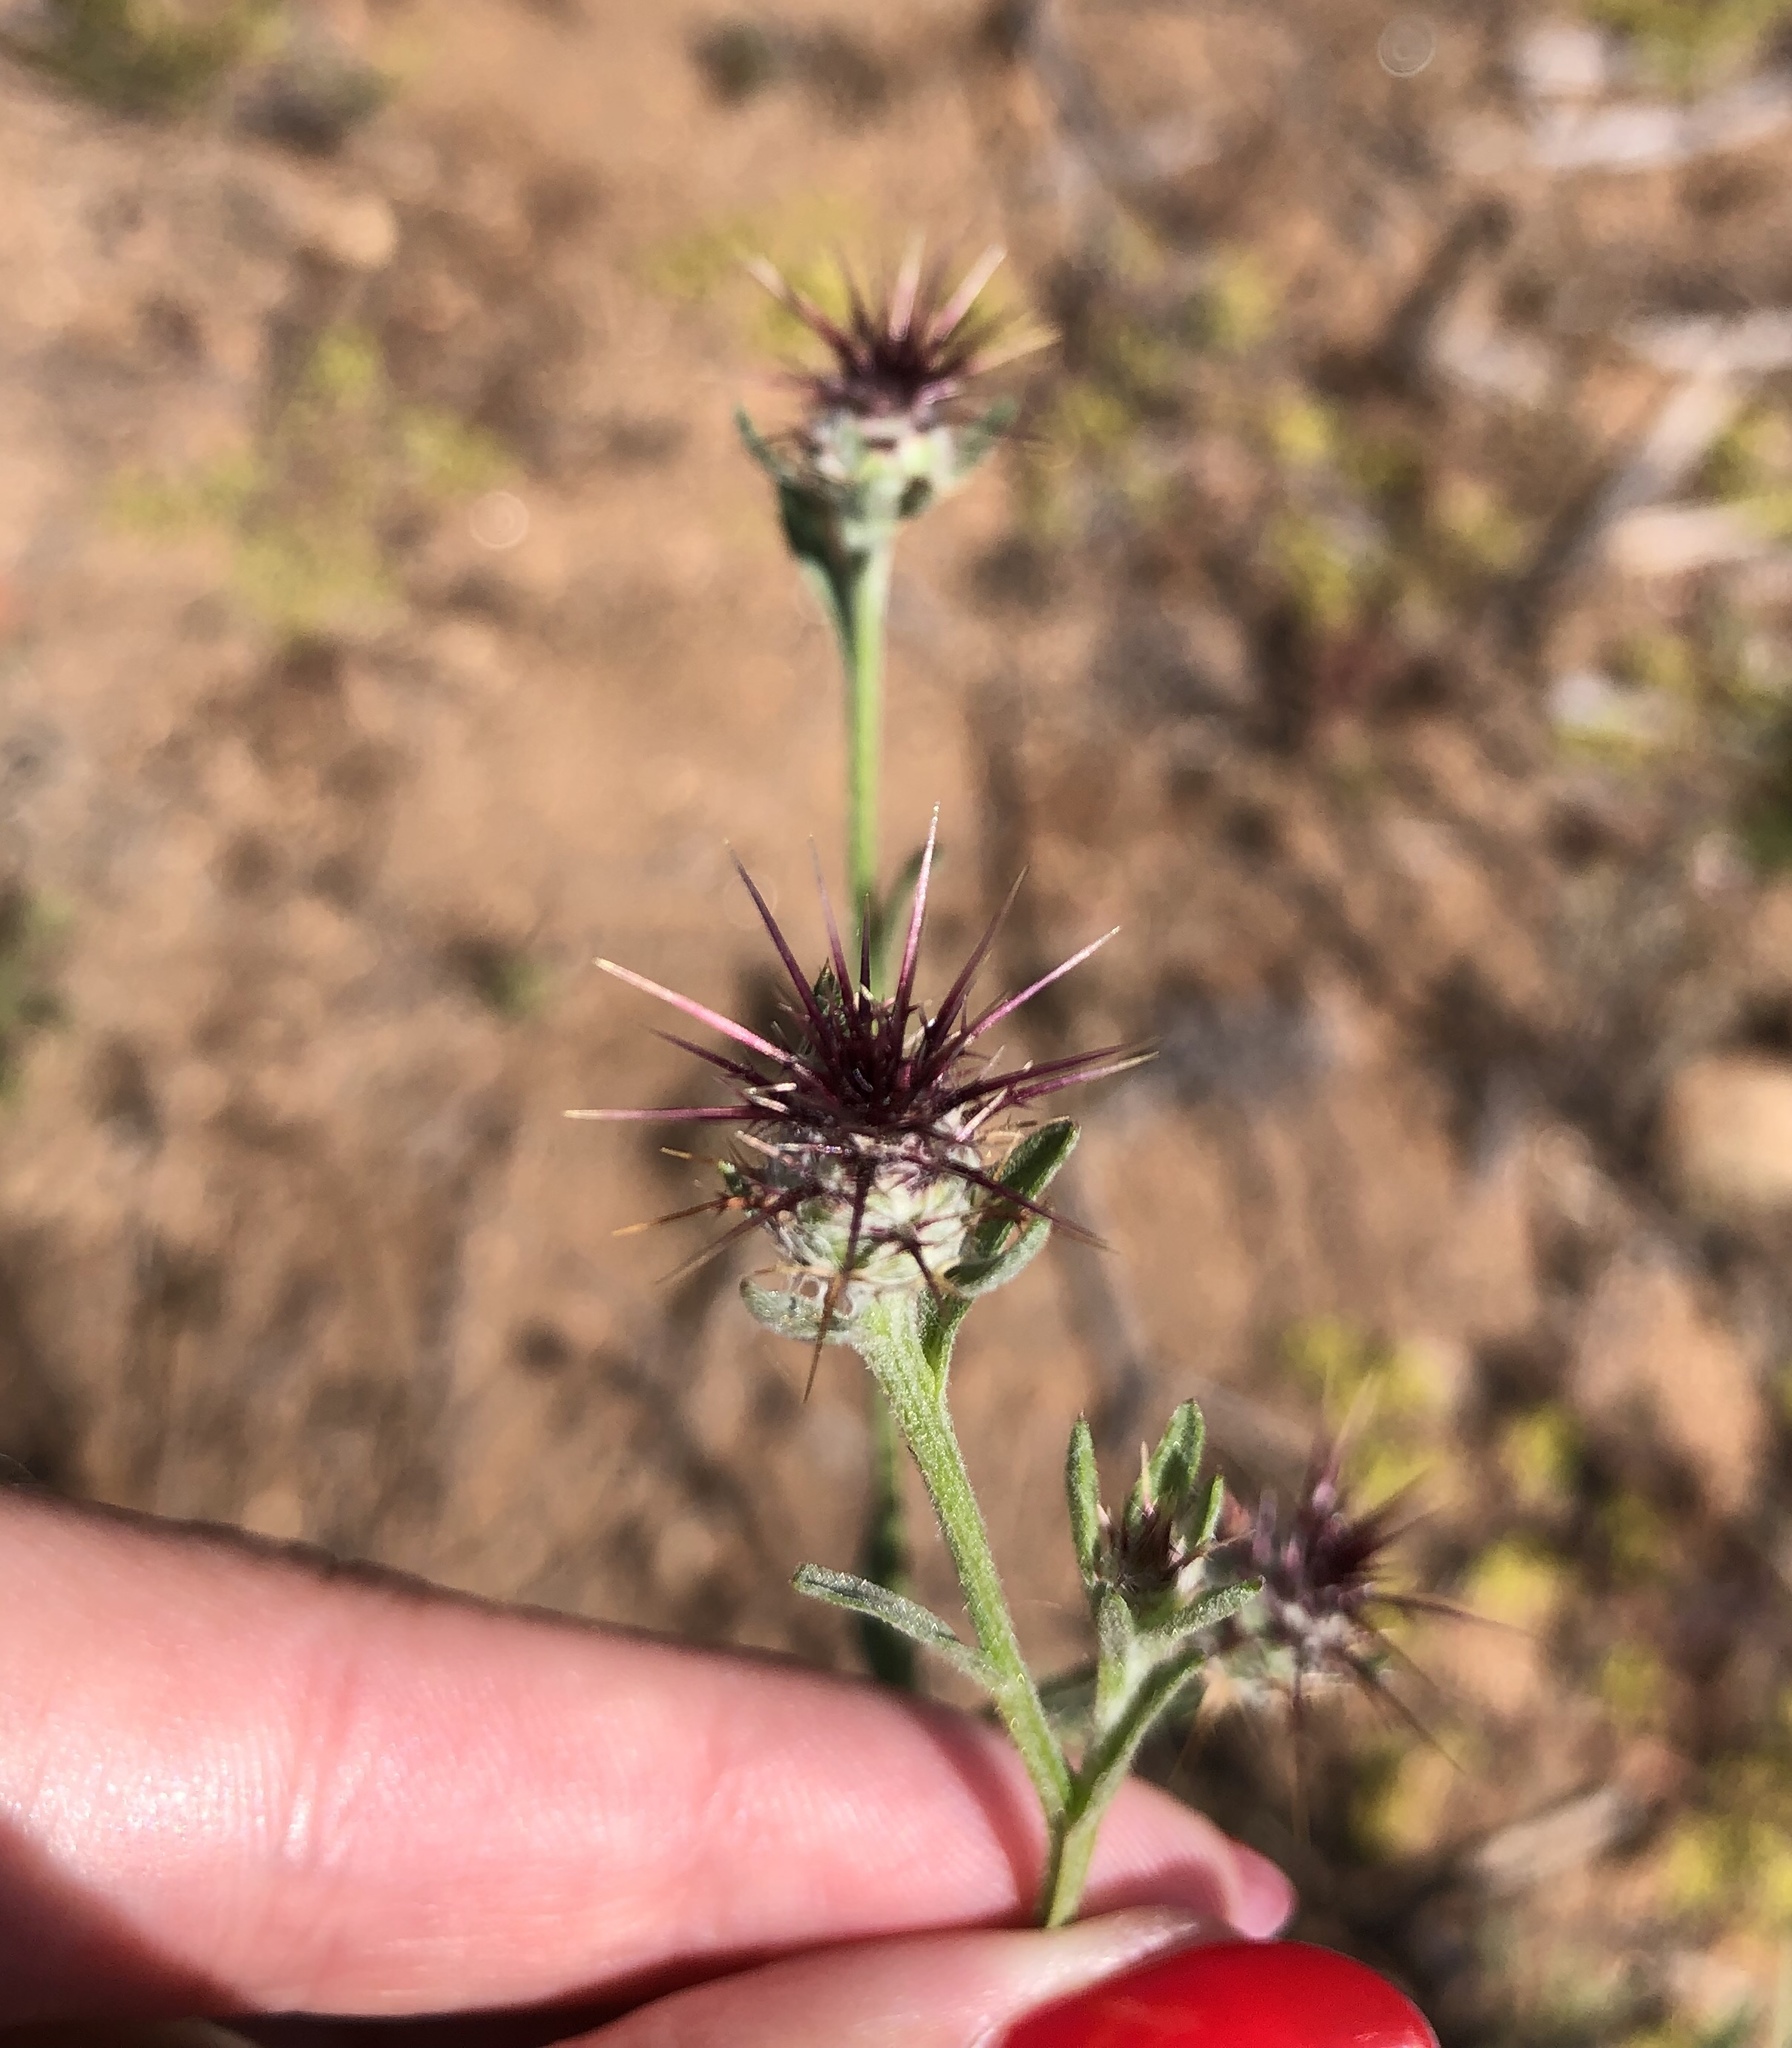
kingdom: Plantae
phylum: Tracheophyta
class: Magnoliopsida
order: Asterales
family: Asteraceae
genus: Centaurea
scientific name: Centaurea melitensis
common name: Maltese star-thistle
